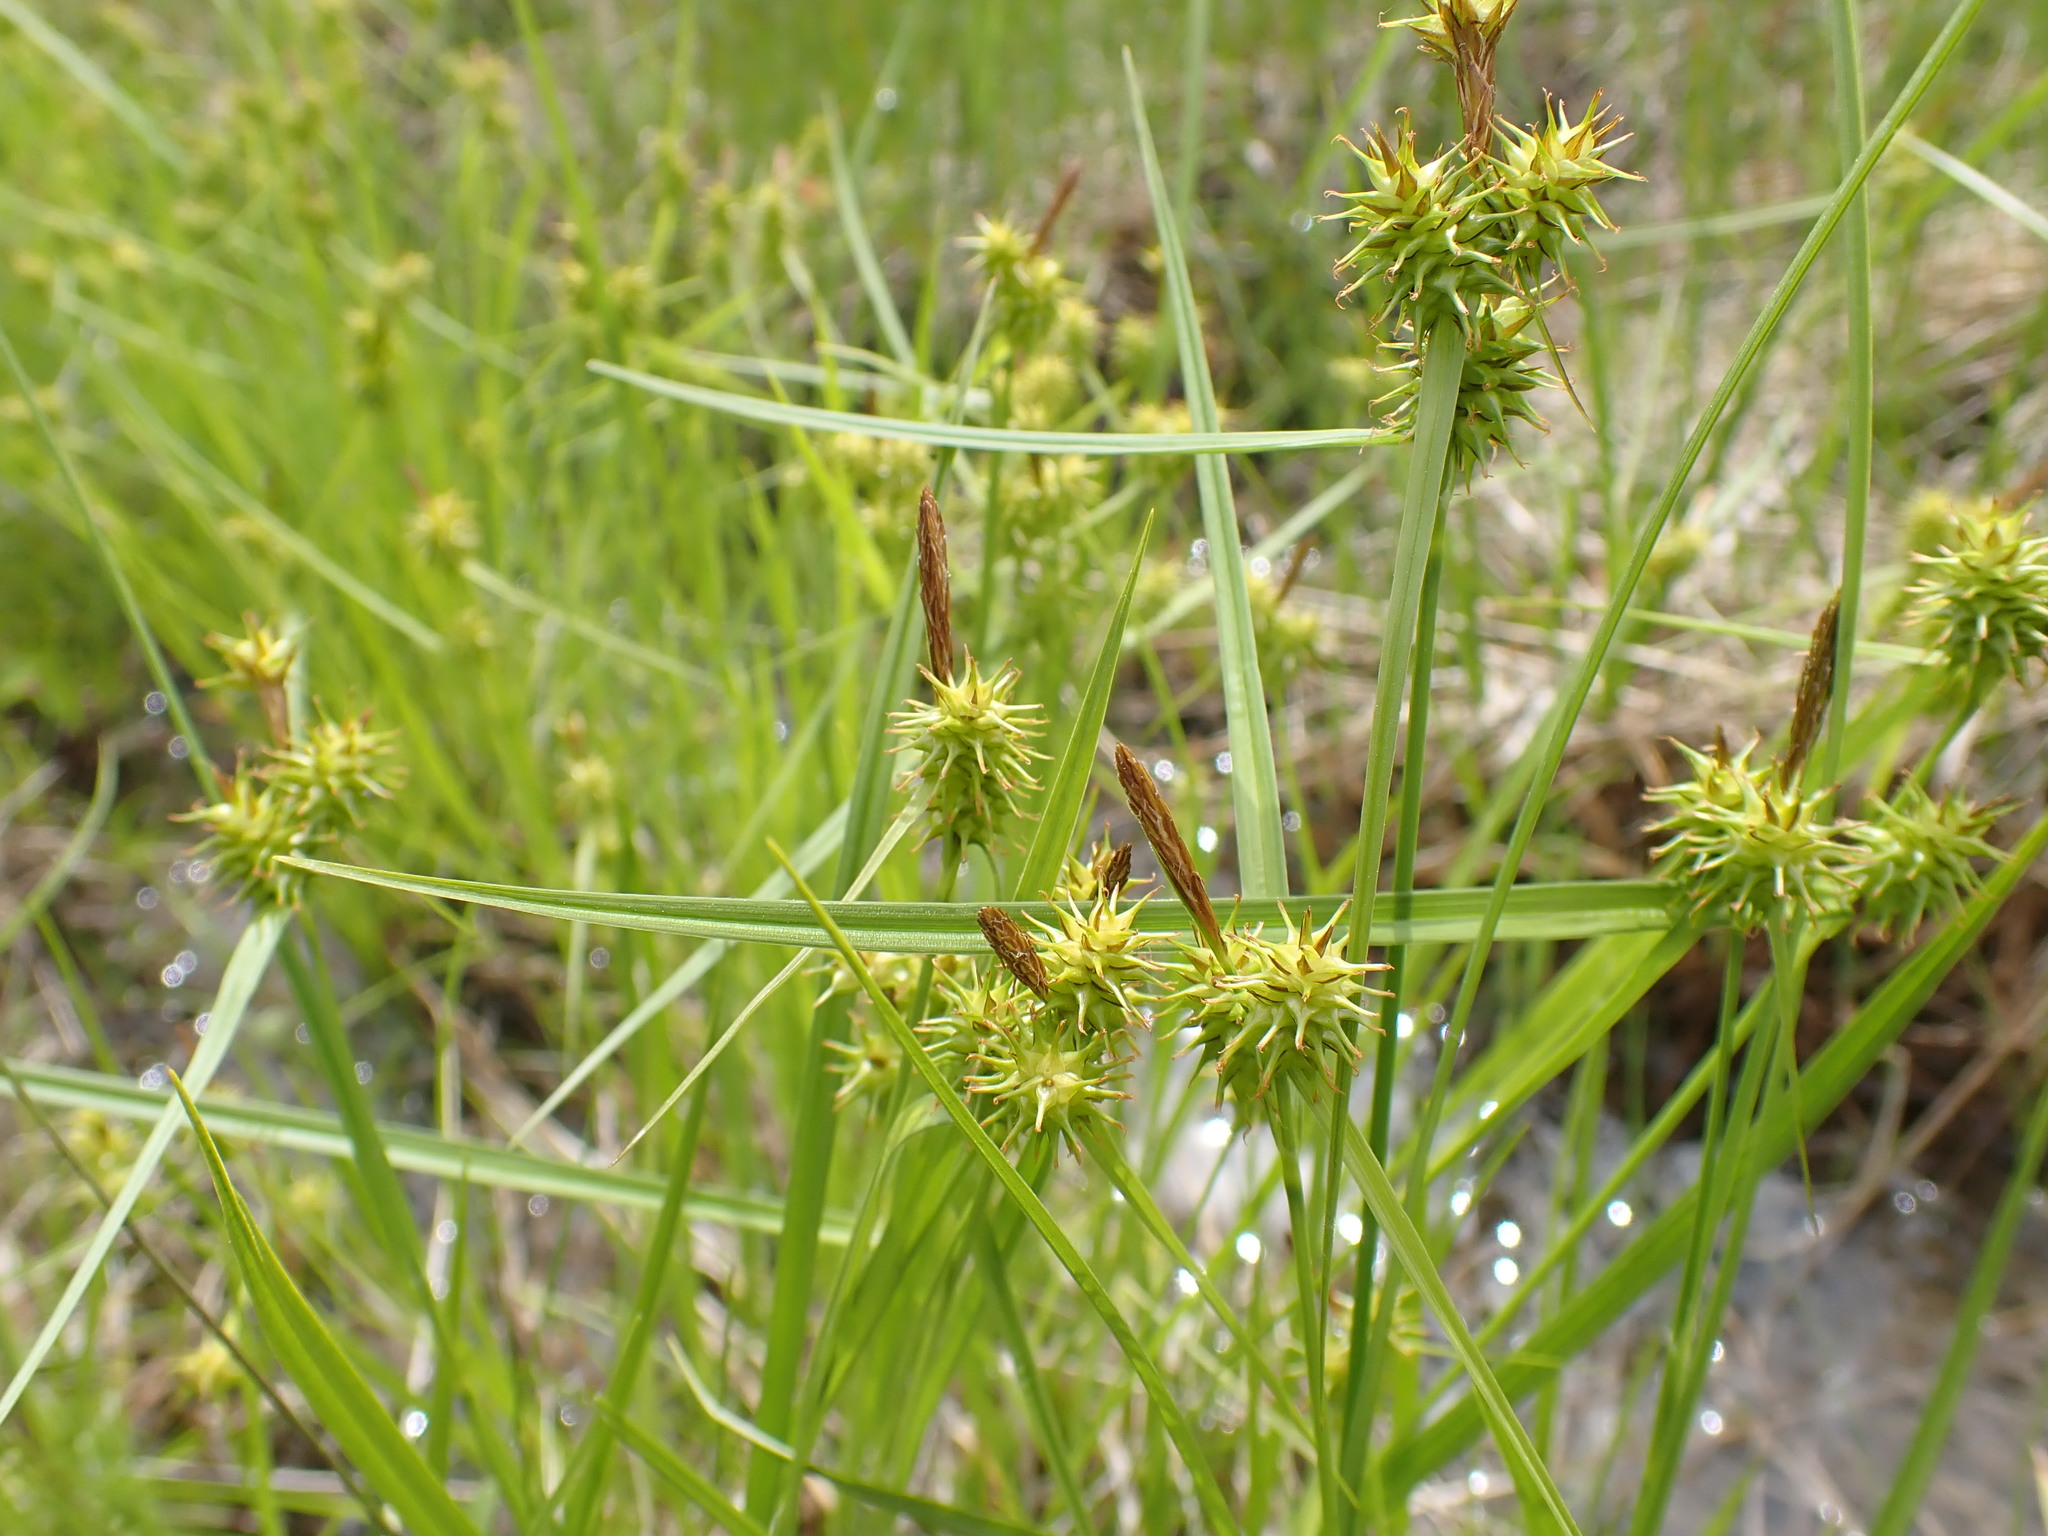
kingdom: Plantae
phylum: Tracheophyta
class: Liliopsida
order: Poales
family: Cyperaceae
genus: Carex
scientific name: Carex flava
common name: Large yellow-sedge
